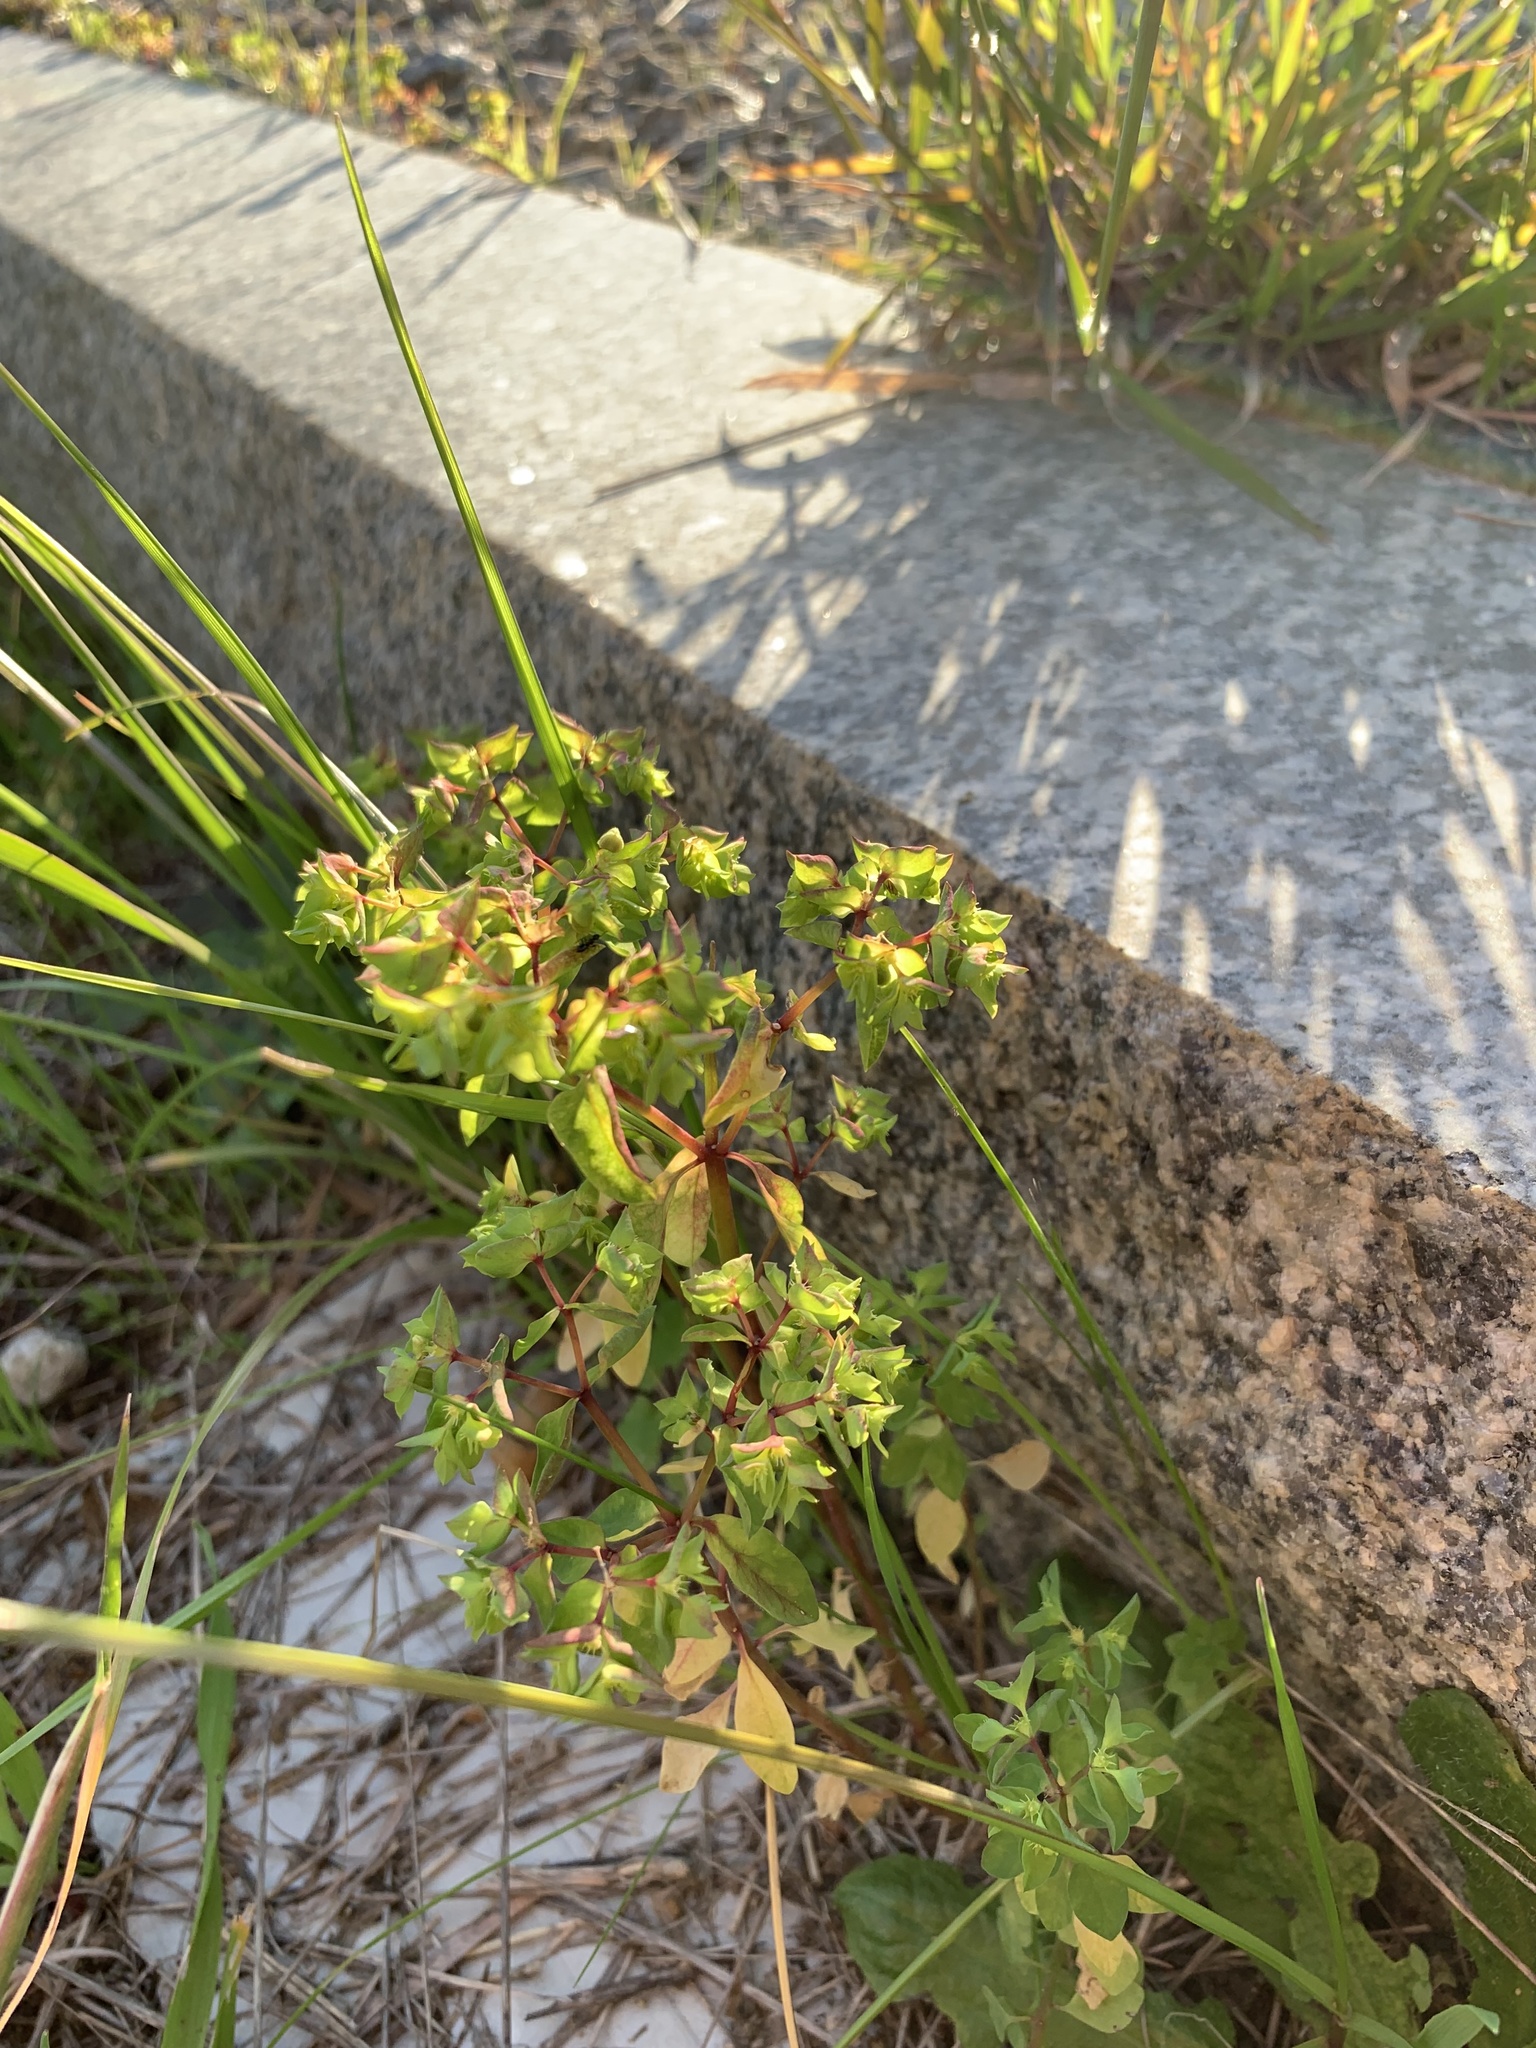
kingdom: Plantae
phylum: Tracheophyta
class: Magnoliopsida
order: Malpighiales
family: Euphorbiaceae
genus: Euphorbia
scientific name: Euphorbia peplus
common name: Petty spurge
